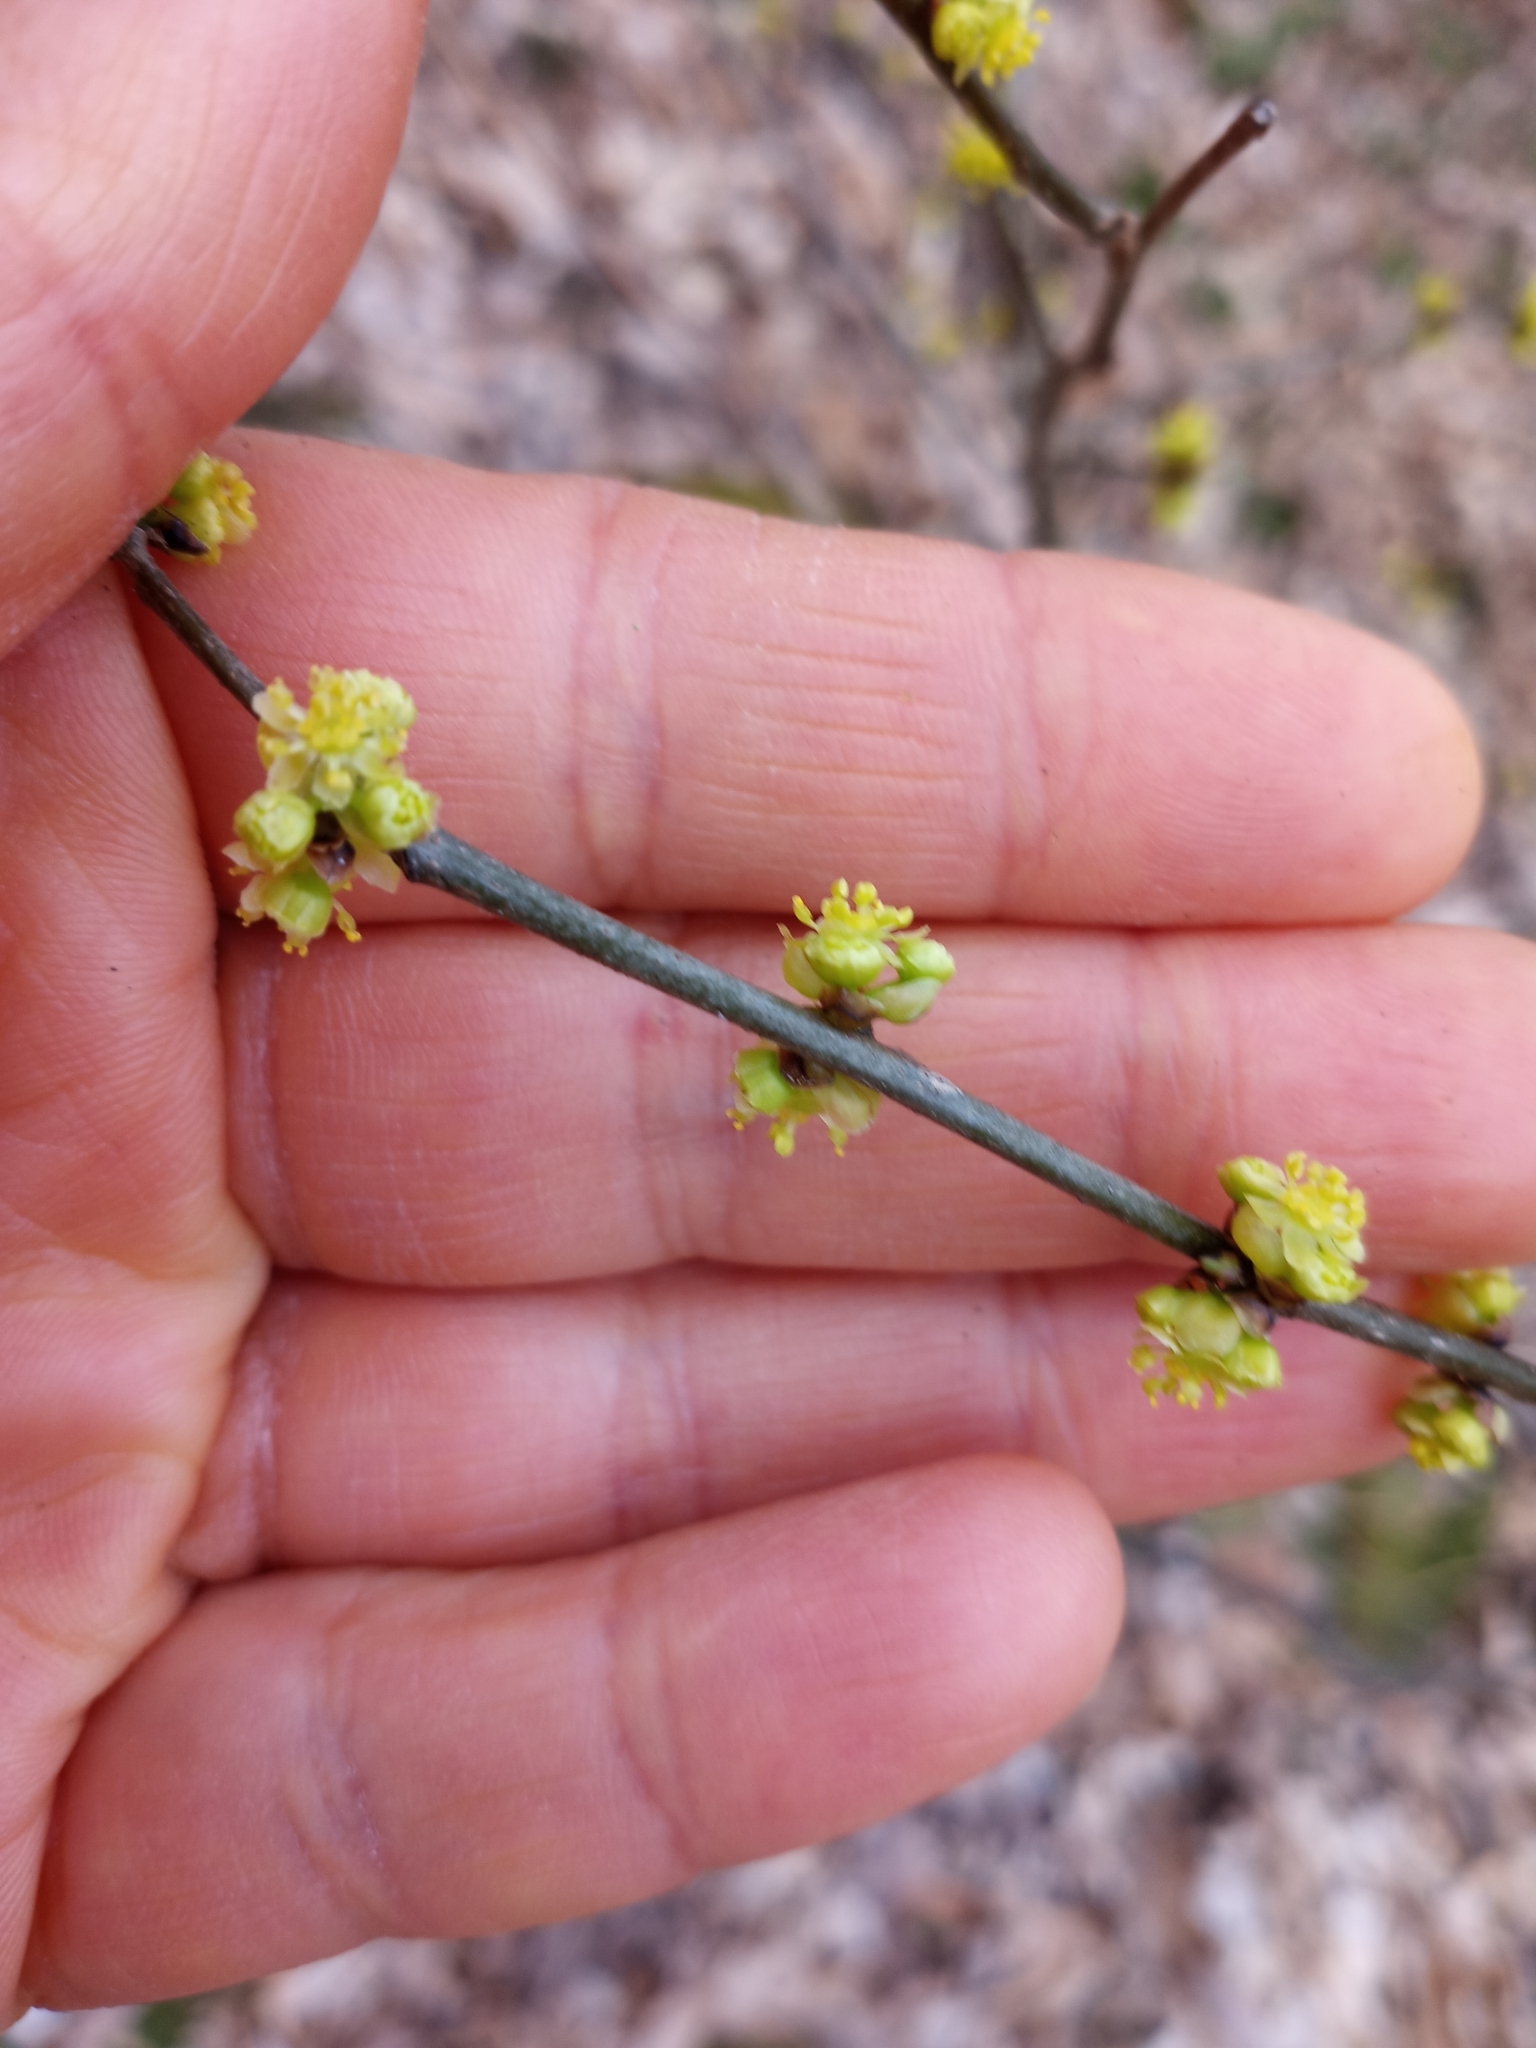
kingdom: Plantae
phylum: Tracheophyta
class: Magnoliopsida
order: Laurales
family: Lauraceae
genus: Lindera
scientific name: Lindera benzoin
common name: Spicebush
